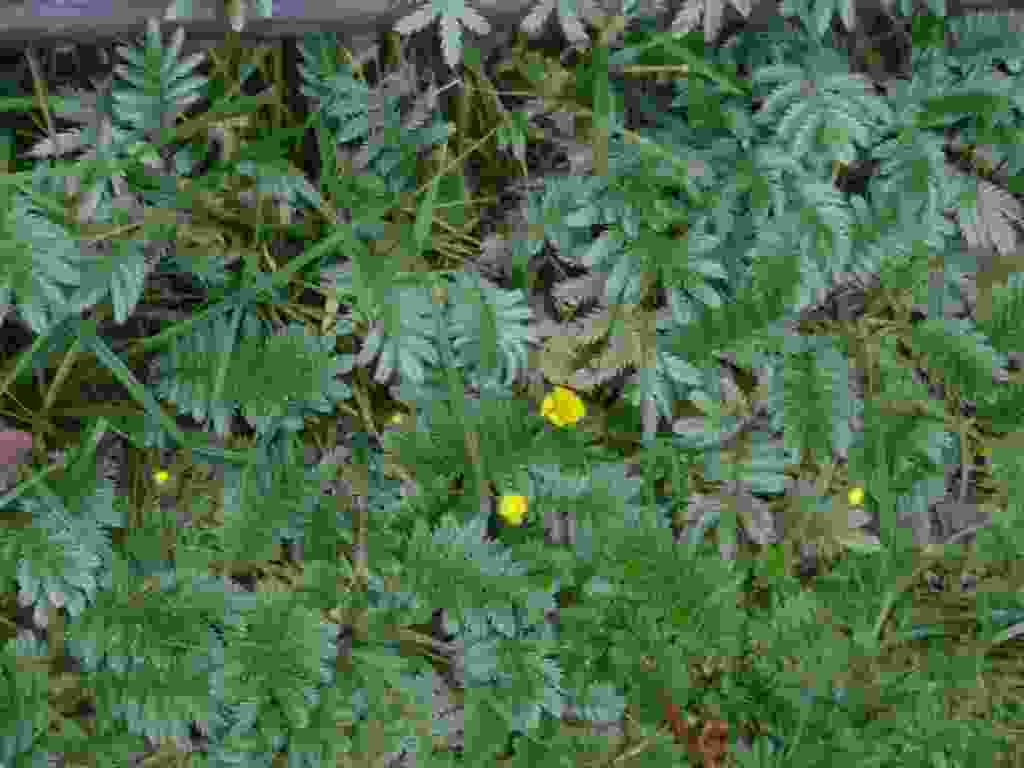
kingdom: Plantae
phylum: Tracheophyta
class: Magnoliopsida
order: Rosales
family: Rosaceae
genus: Argentina
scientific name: Argentina anserina
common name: Common silverweed
